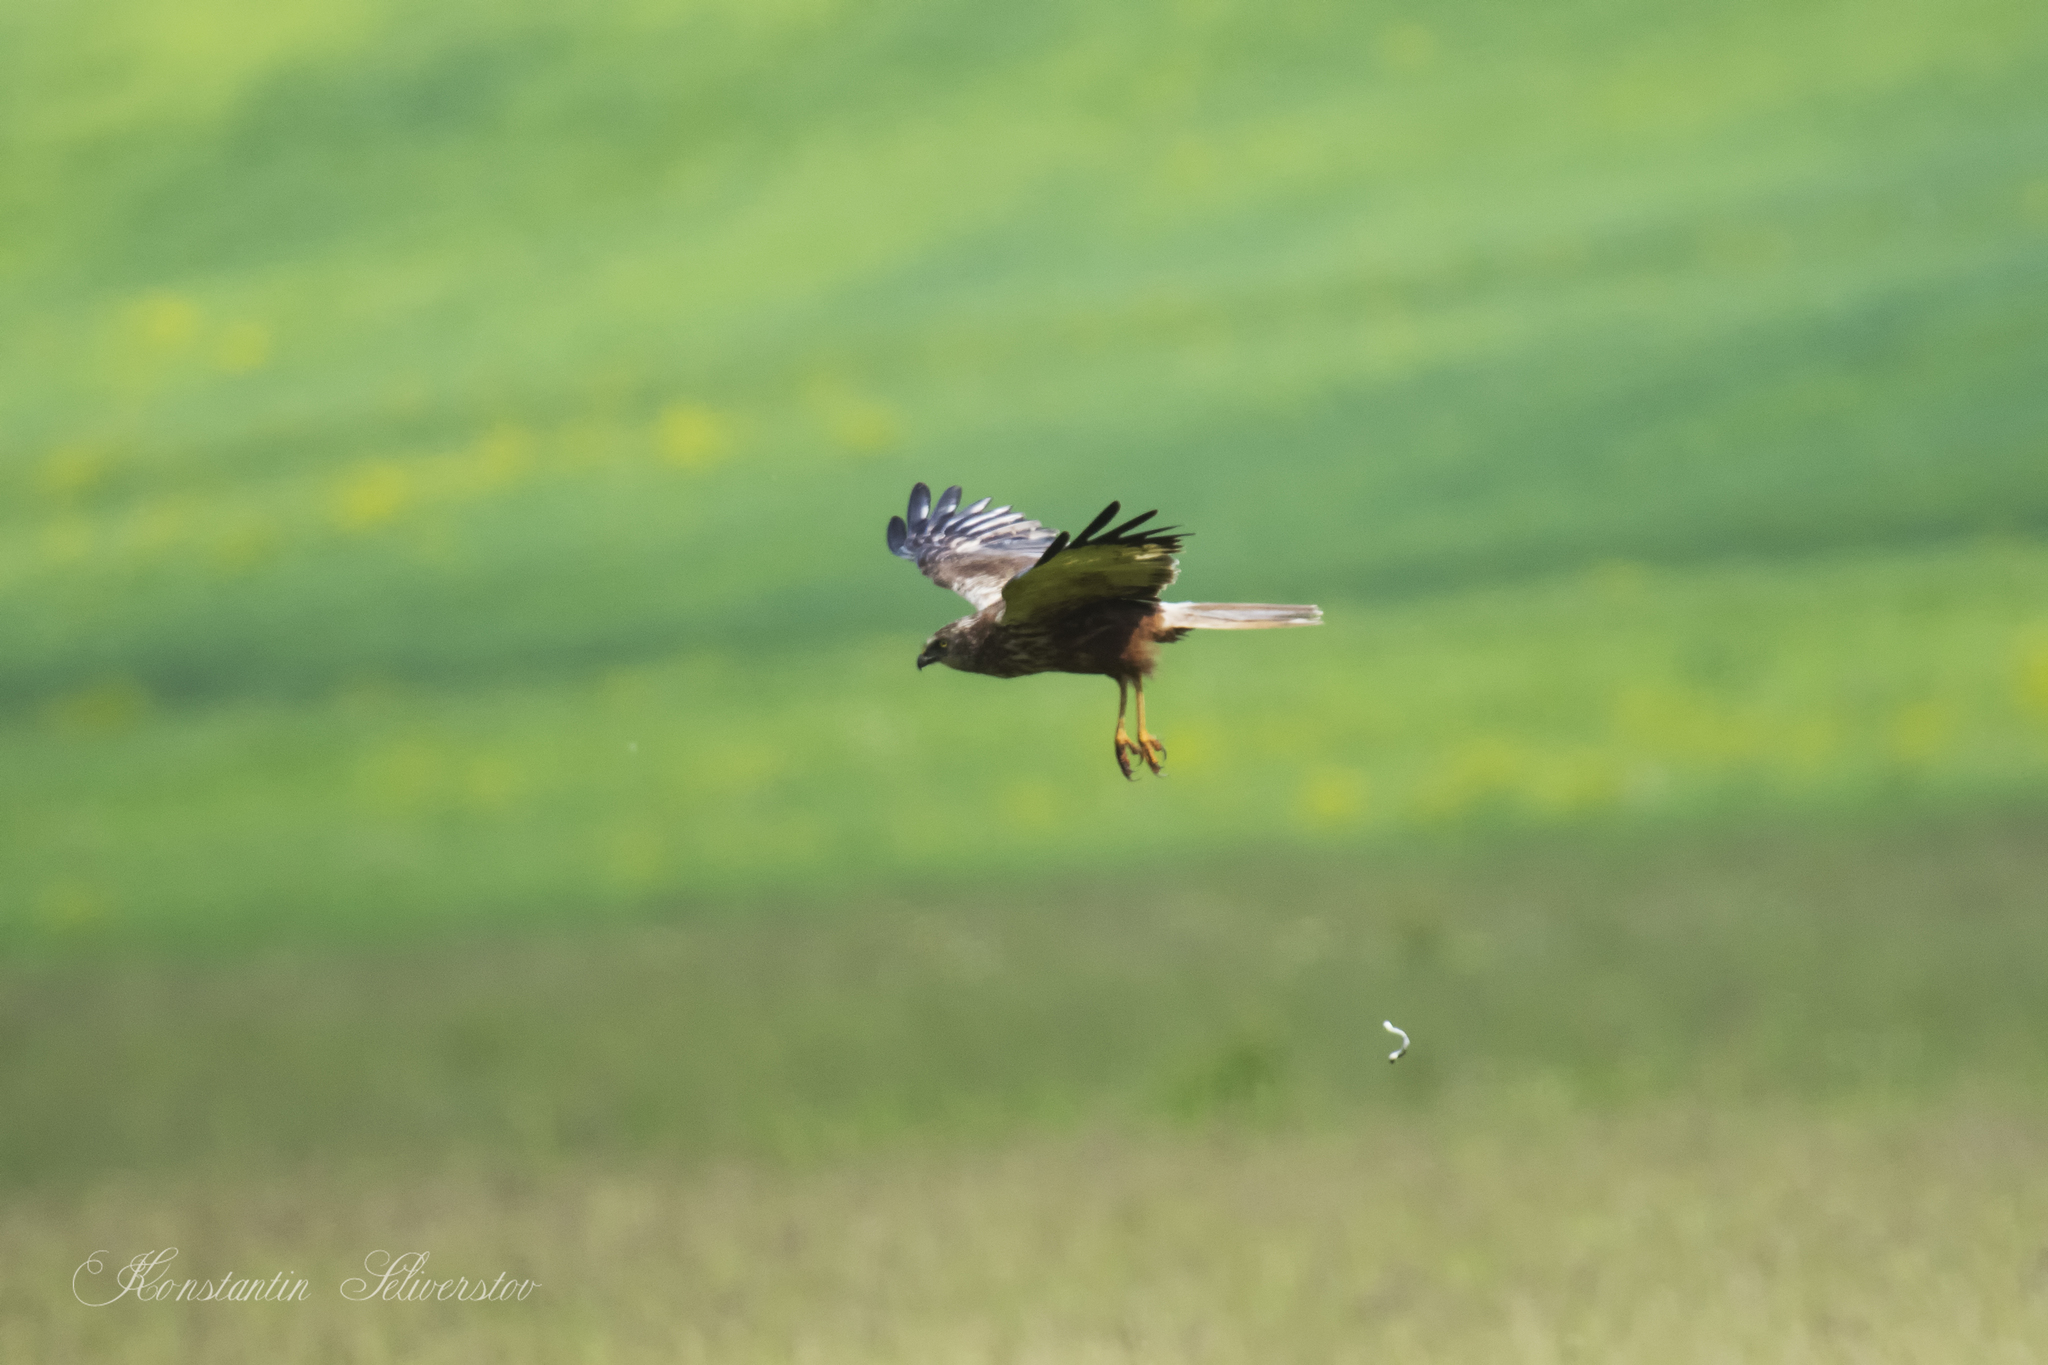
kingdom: Animalia
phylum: Chordata
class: Aves
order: Accipitriformes
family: Accipitridae
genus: Circus
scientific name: Circus aeruginosus
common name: Western marsh harrier
